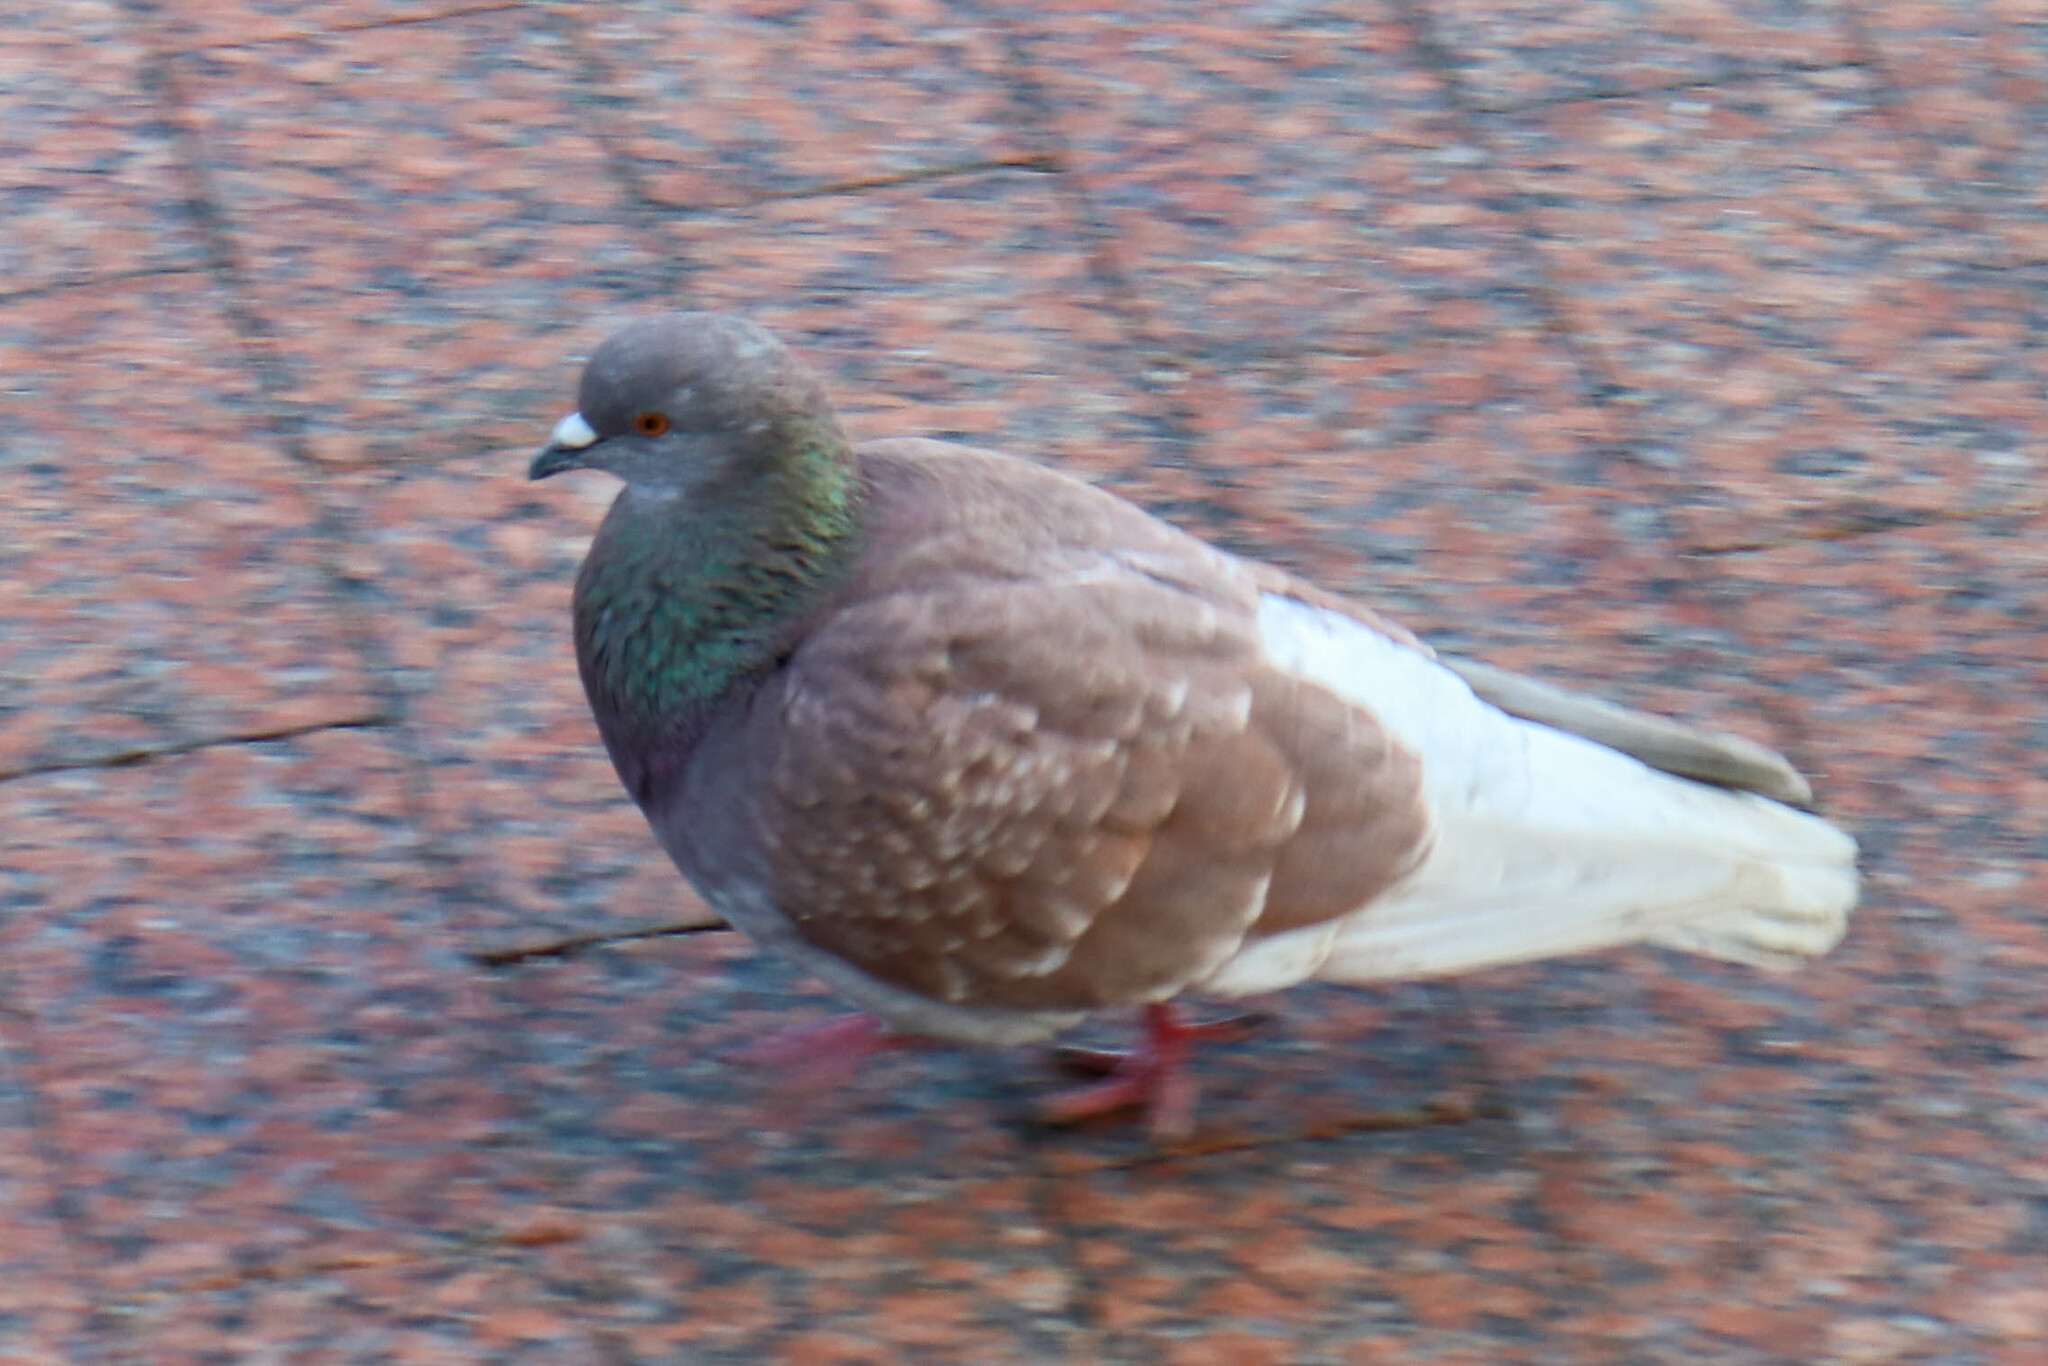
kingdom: Animalia
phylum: Chordata
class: Aves
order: Columbiformes
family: Columbidae
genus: Columba
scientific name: Columba livia
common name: Rock pigeon
